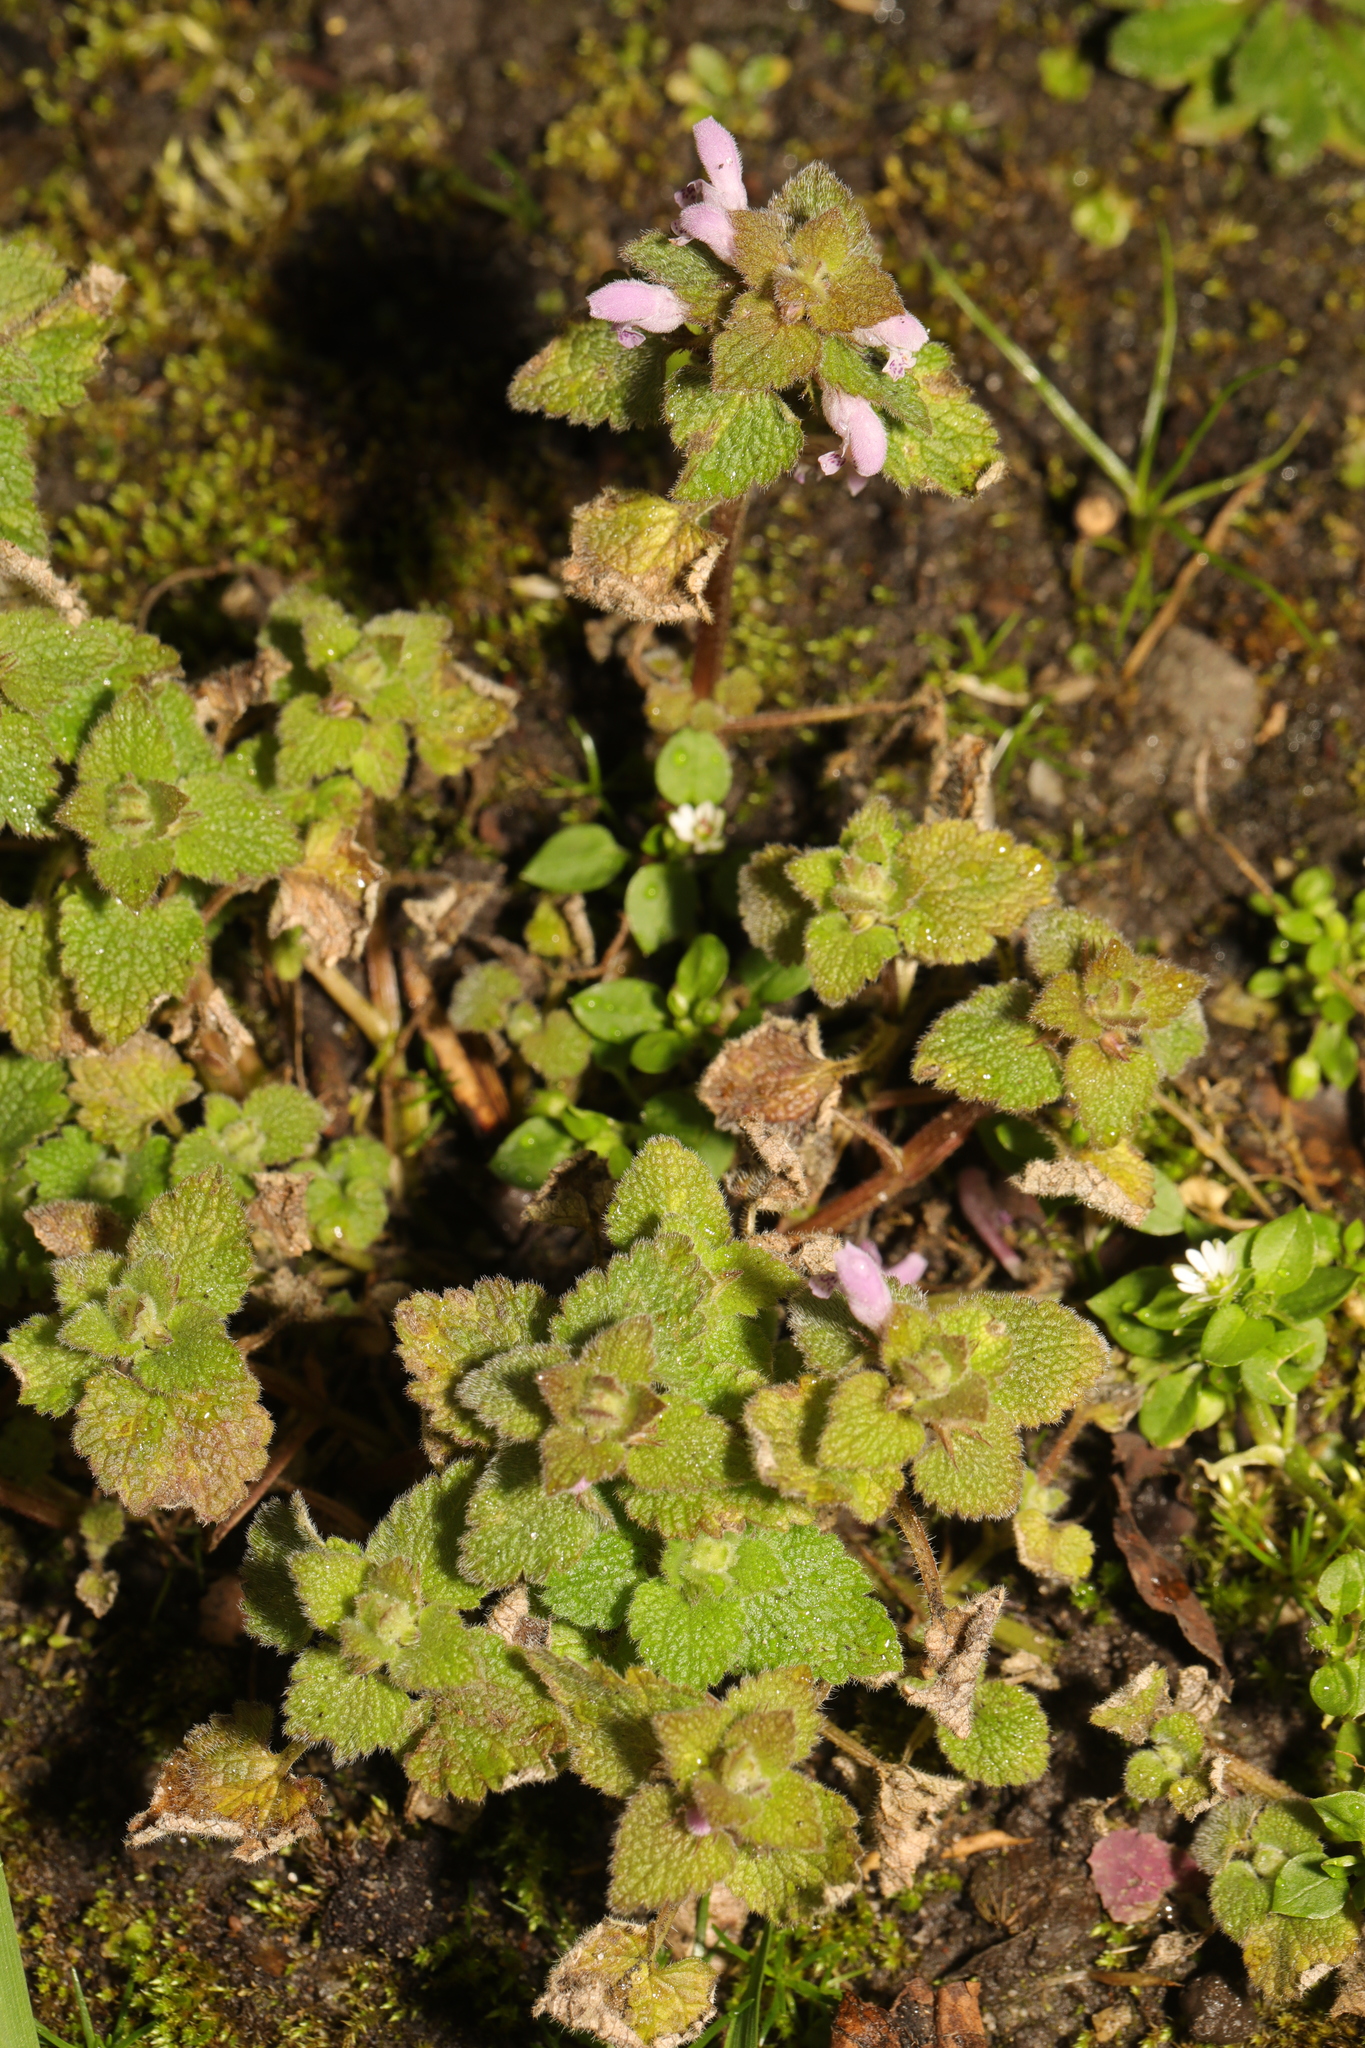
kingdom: Plantae
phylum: Tracheophyta
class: Magnoliopsida
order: Lamiales
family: Lamiaceae
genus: Lamium
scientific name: Lamium purpureum
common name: Red dead-nettle
